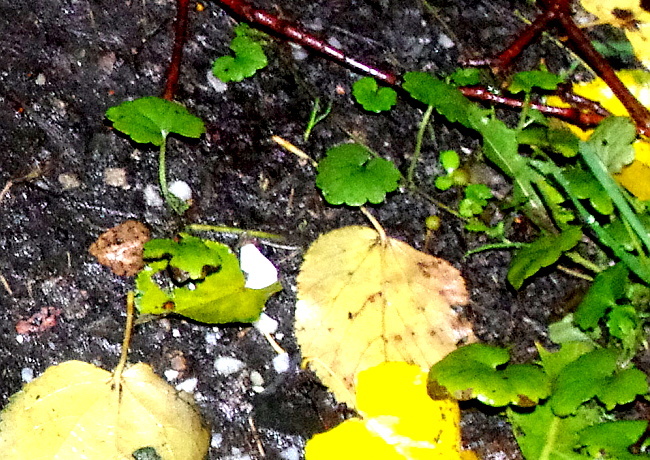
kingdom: Plantae
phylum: Tracheophyta
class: Magnoliopsida
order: Lamiales
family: Lamiaceae
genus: Glechoma
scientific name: Glechoma hederacea
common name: Ground ivy
